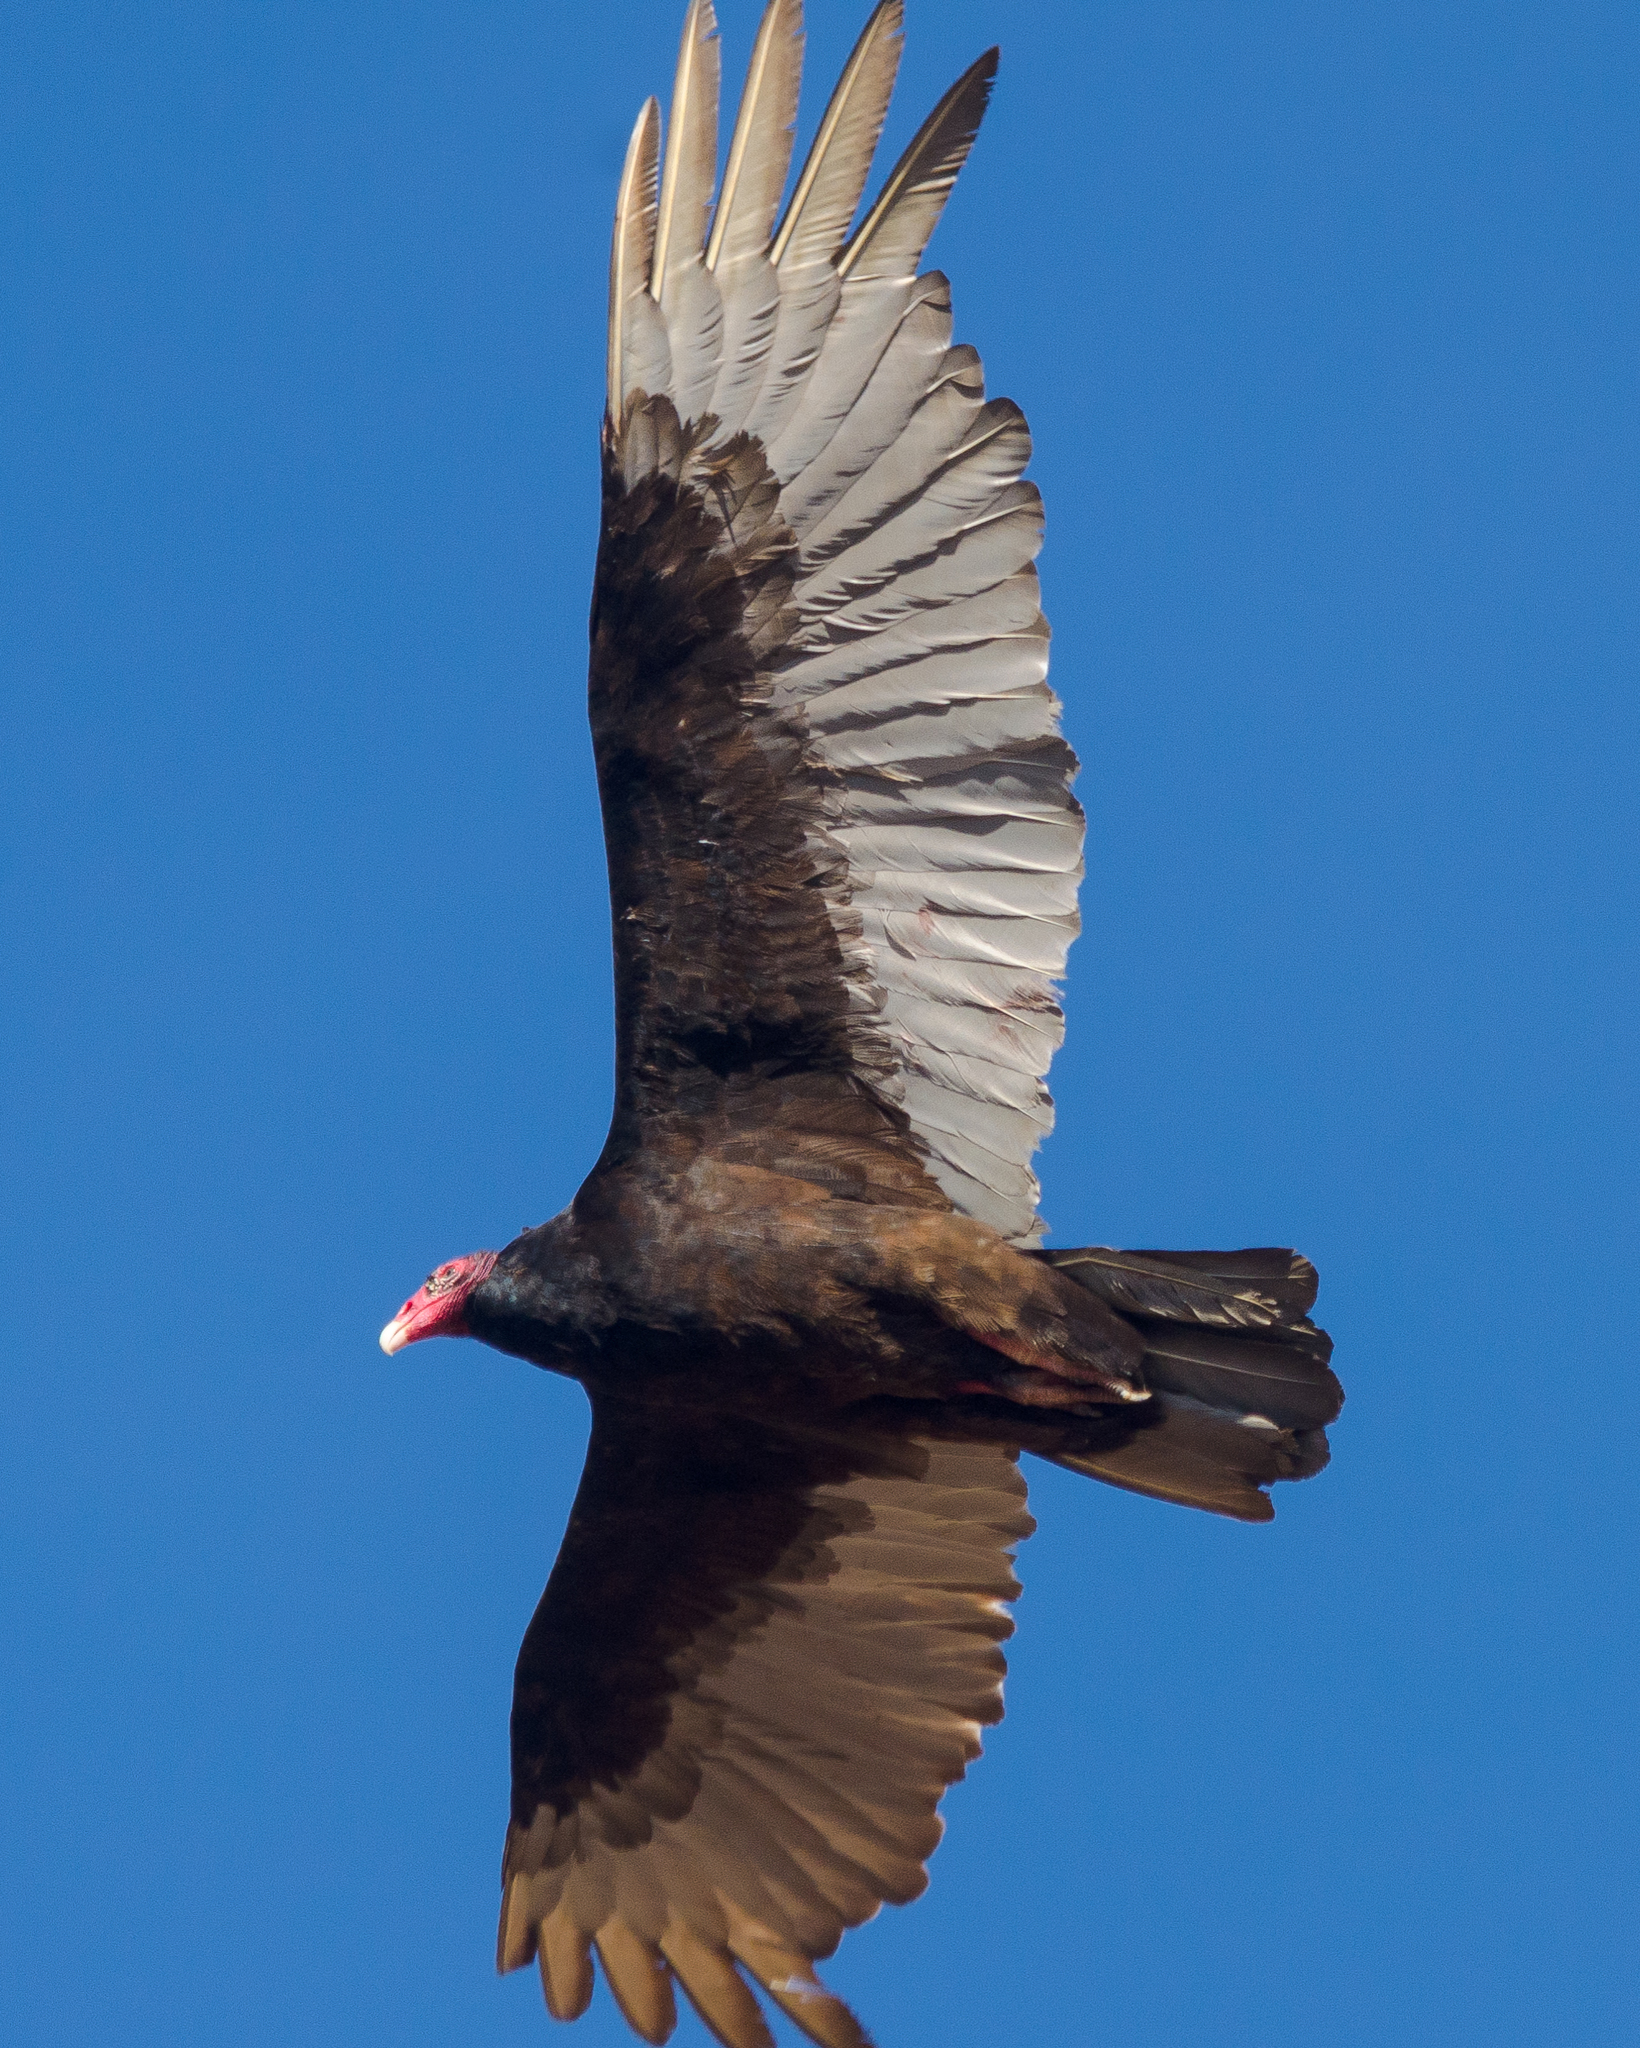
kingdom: Animalia
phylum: Chordata
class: Aves
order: Accipitriformes
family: Cathartidae
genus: Cathartes
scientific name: Cathartes aura
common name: Turkey vulture
